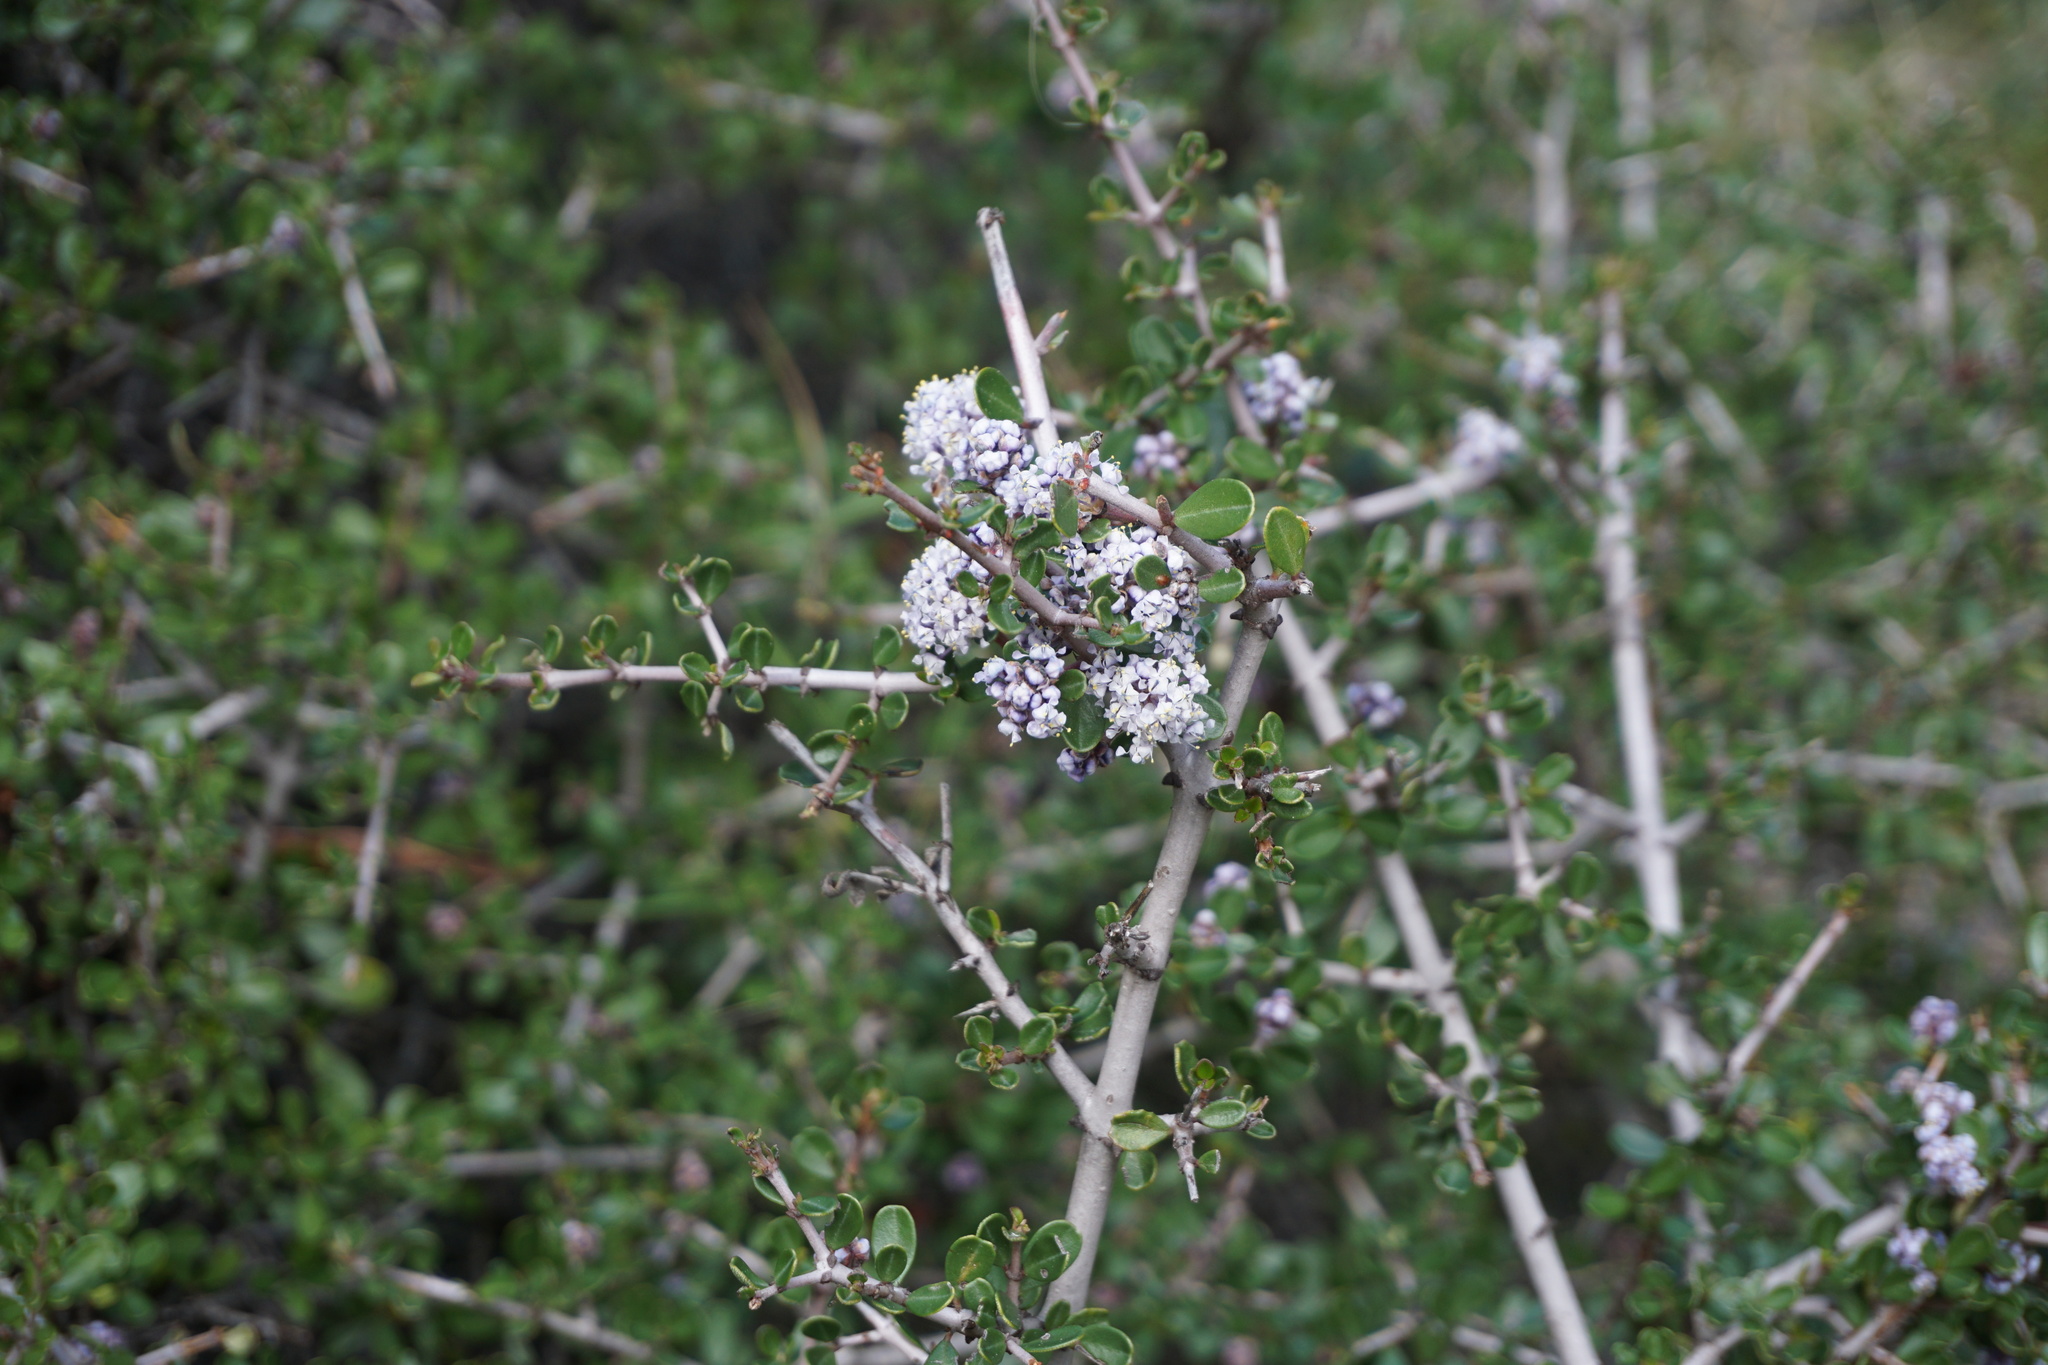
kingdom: Plantae
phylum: Tracheophyta
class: Magnoliopsida
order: Rosales
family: Rhamnaceae
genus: Ceanothus
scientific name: Ceanothus cuneatus
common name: Cuneate ceanothus
